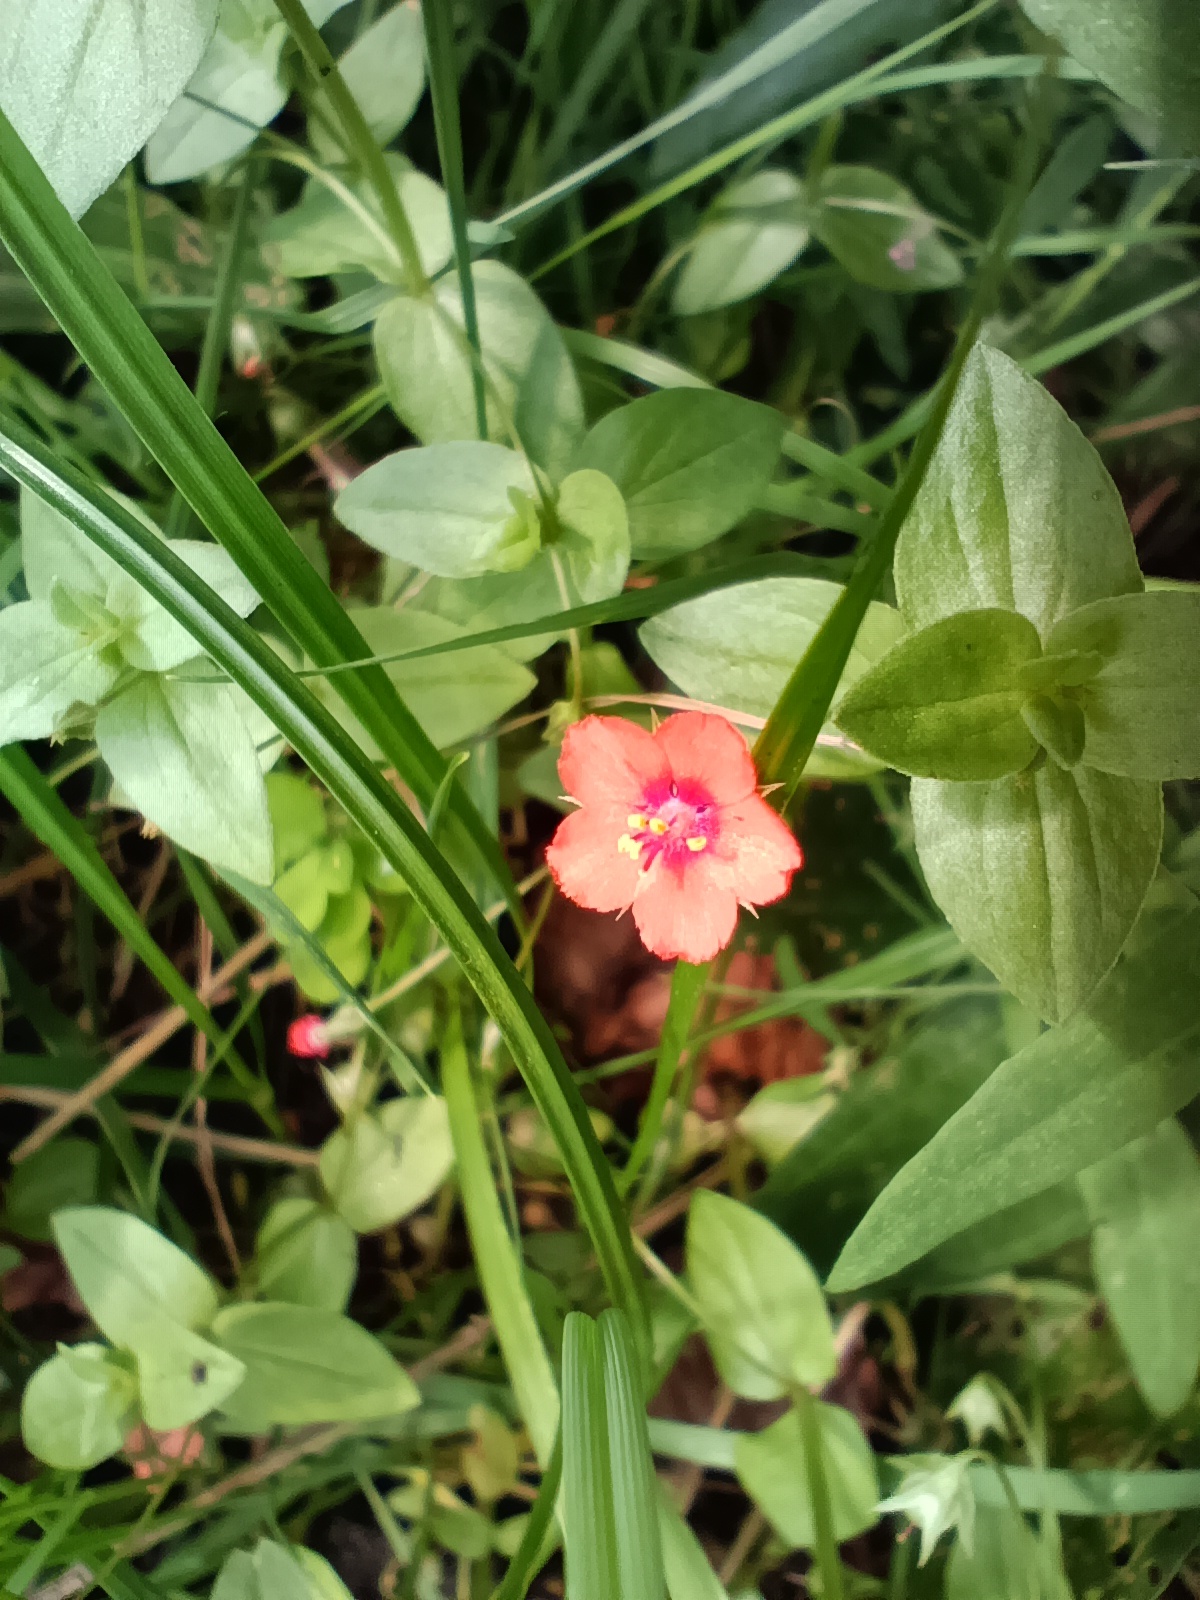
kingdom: Plantae
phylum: Tracheophyta
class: Magnoliopsida
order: Ericales
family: Primulaceae
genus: Lysimachia
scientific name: Lysimachia arvensis
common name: Scarlet pimpernel
